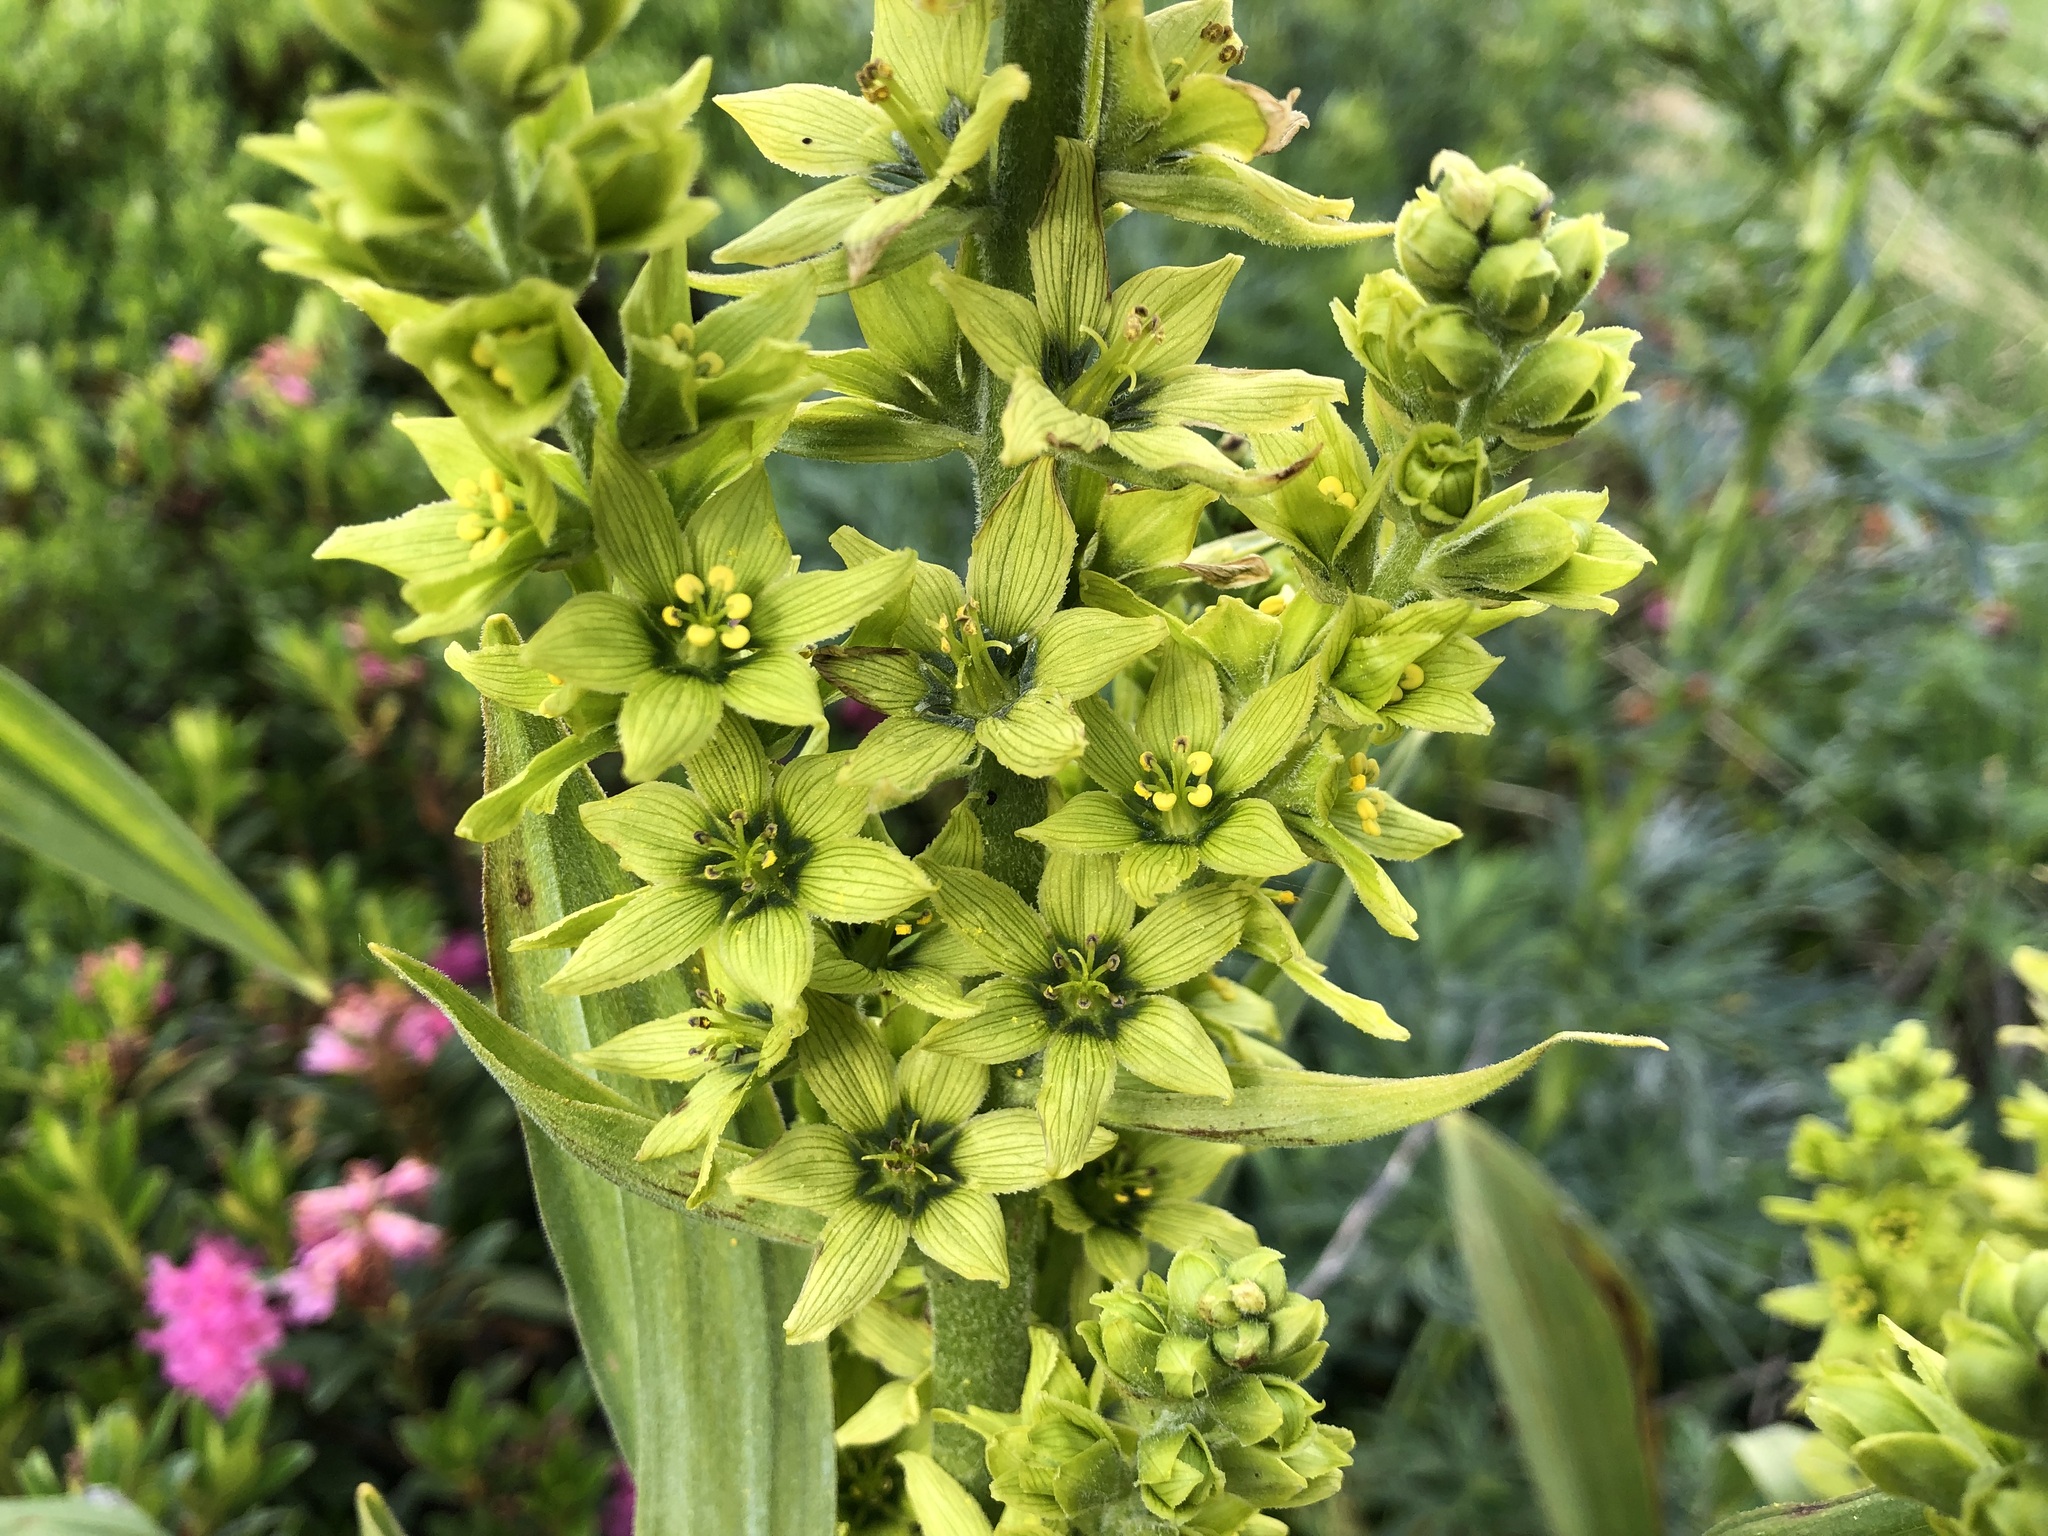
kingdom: Plantae
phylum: Tracheophyta
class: Liliopsida
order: Liliales
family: Melanthiaceae
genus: Veratrum
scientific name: Veratrum lobelianum
